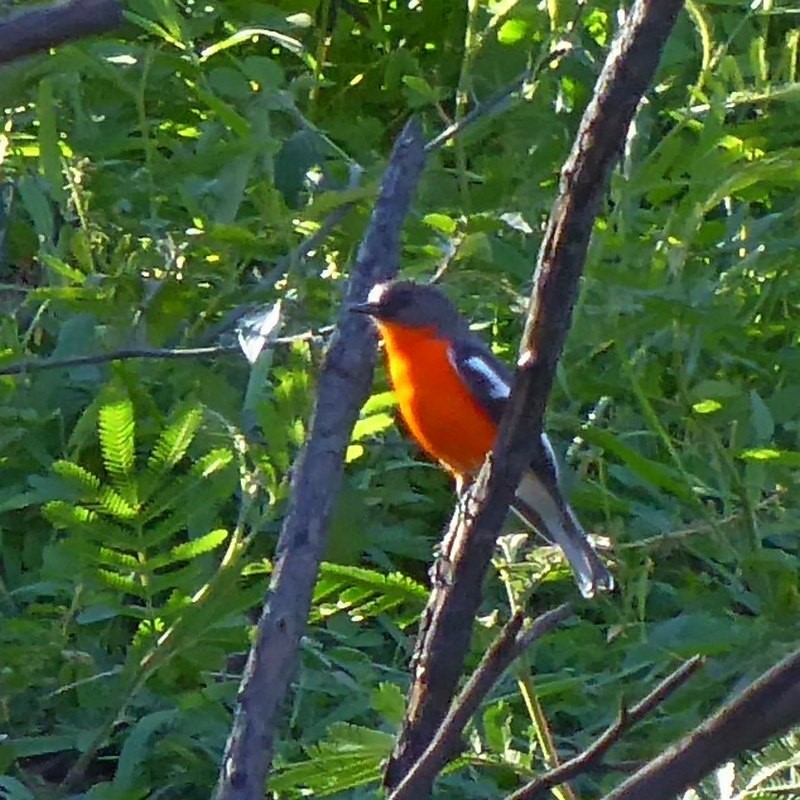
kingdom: Animalia
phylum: Chordata
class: Aves
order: Passeriformes
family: Petroicidae
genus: Petroica
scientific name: Petroica phoenicea
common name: Flame robin
